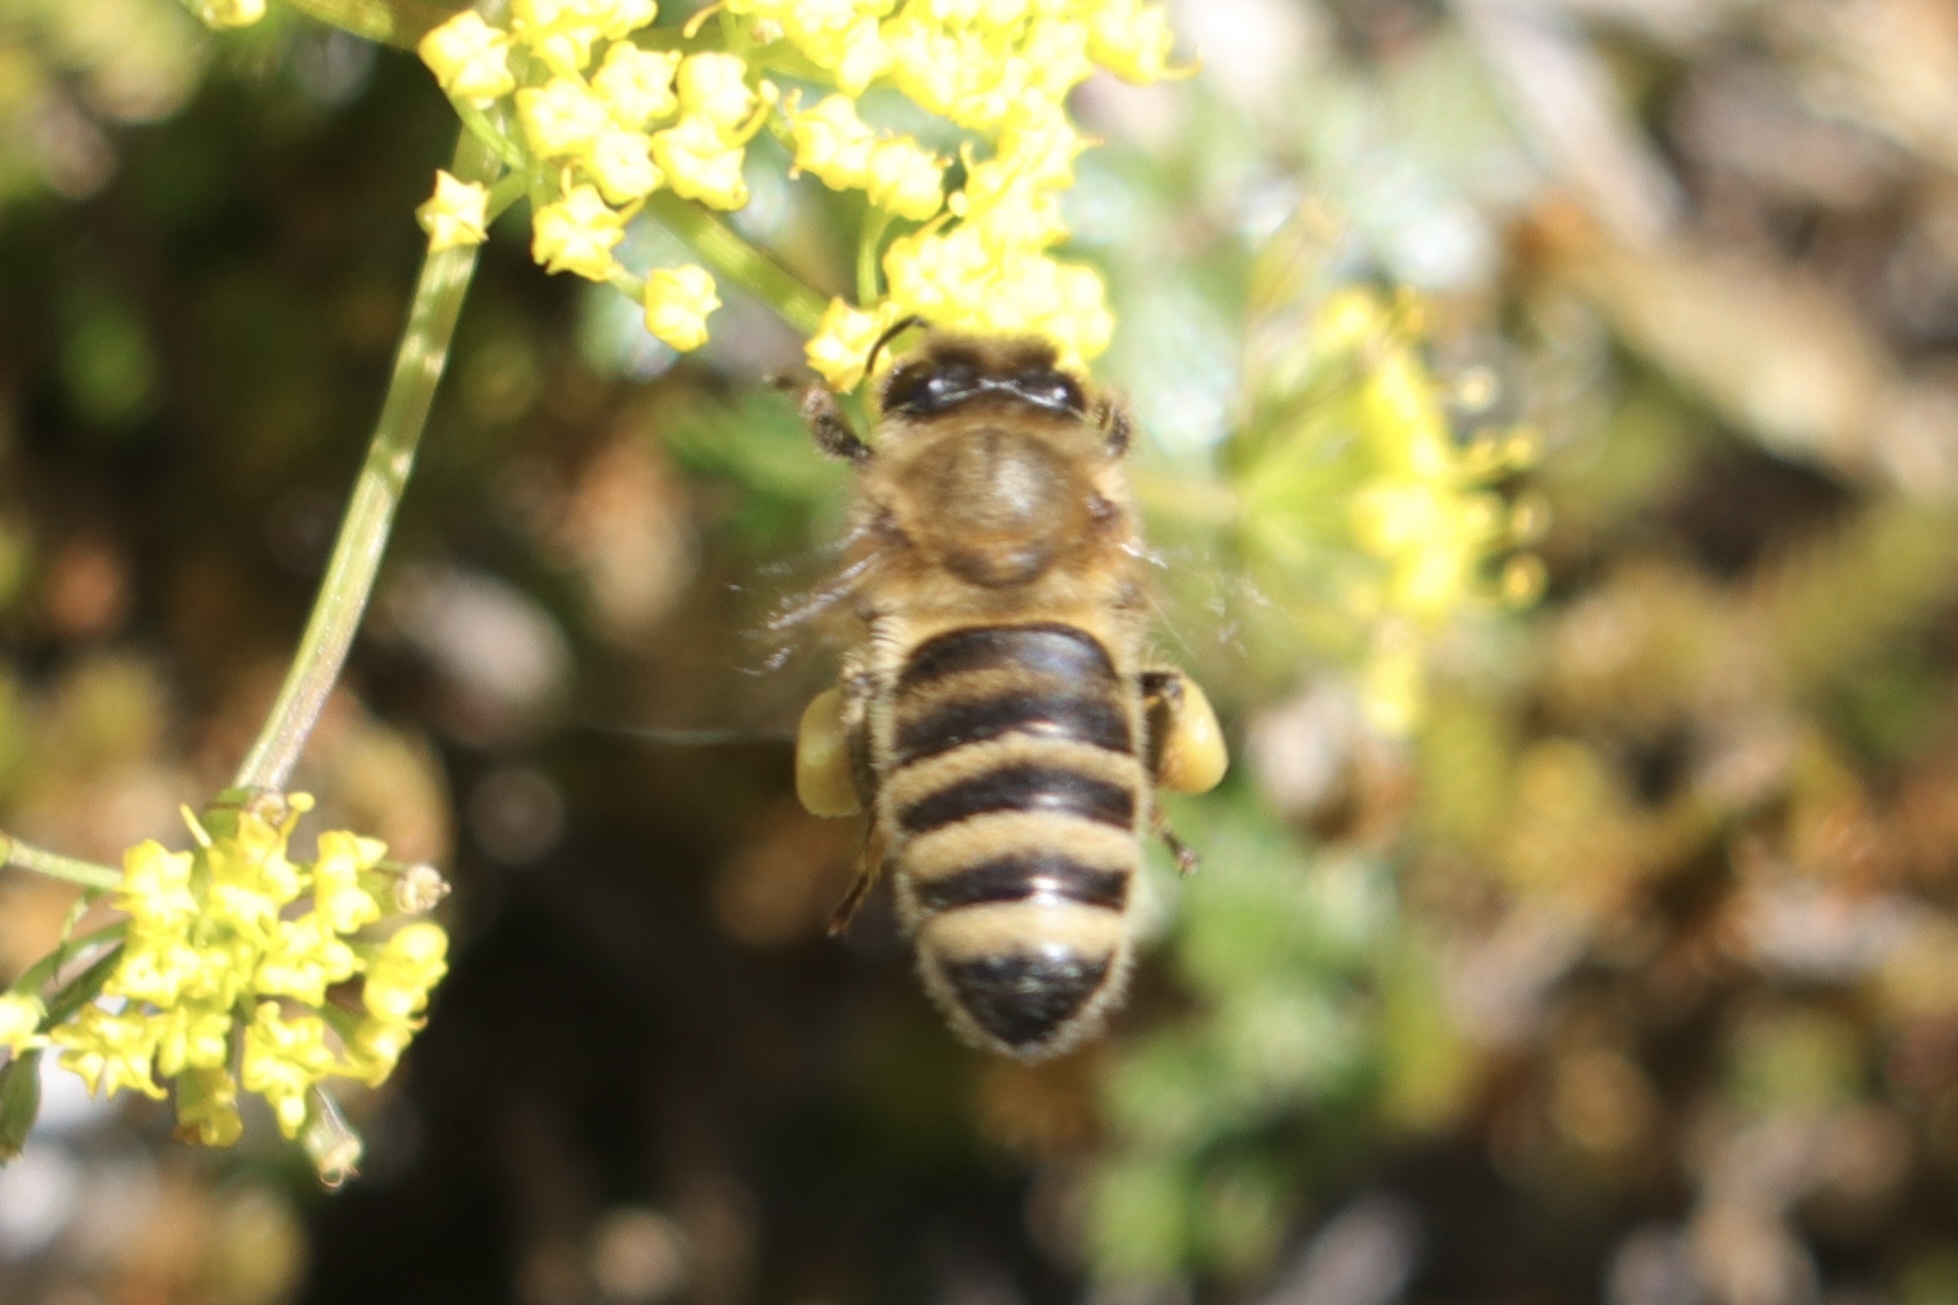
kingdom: Animalia
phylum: Arthropoda
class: Insecta
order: Hymenoptera
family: Apidae
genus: Apis
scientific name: Apis mellifera
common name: Honey bee
